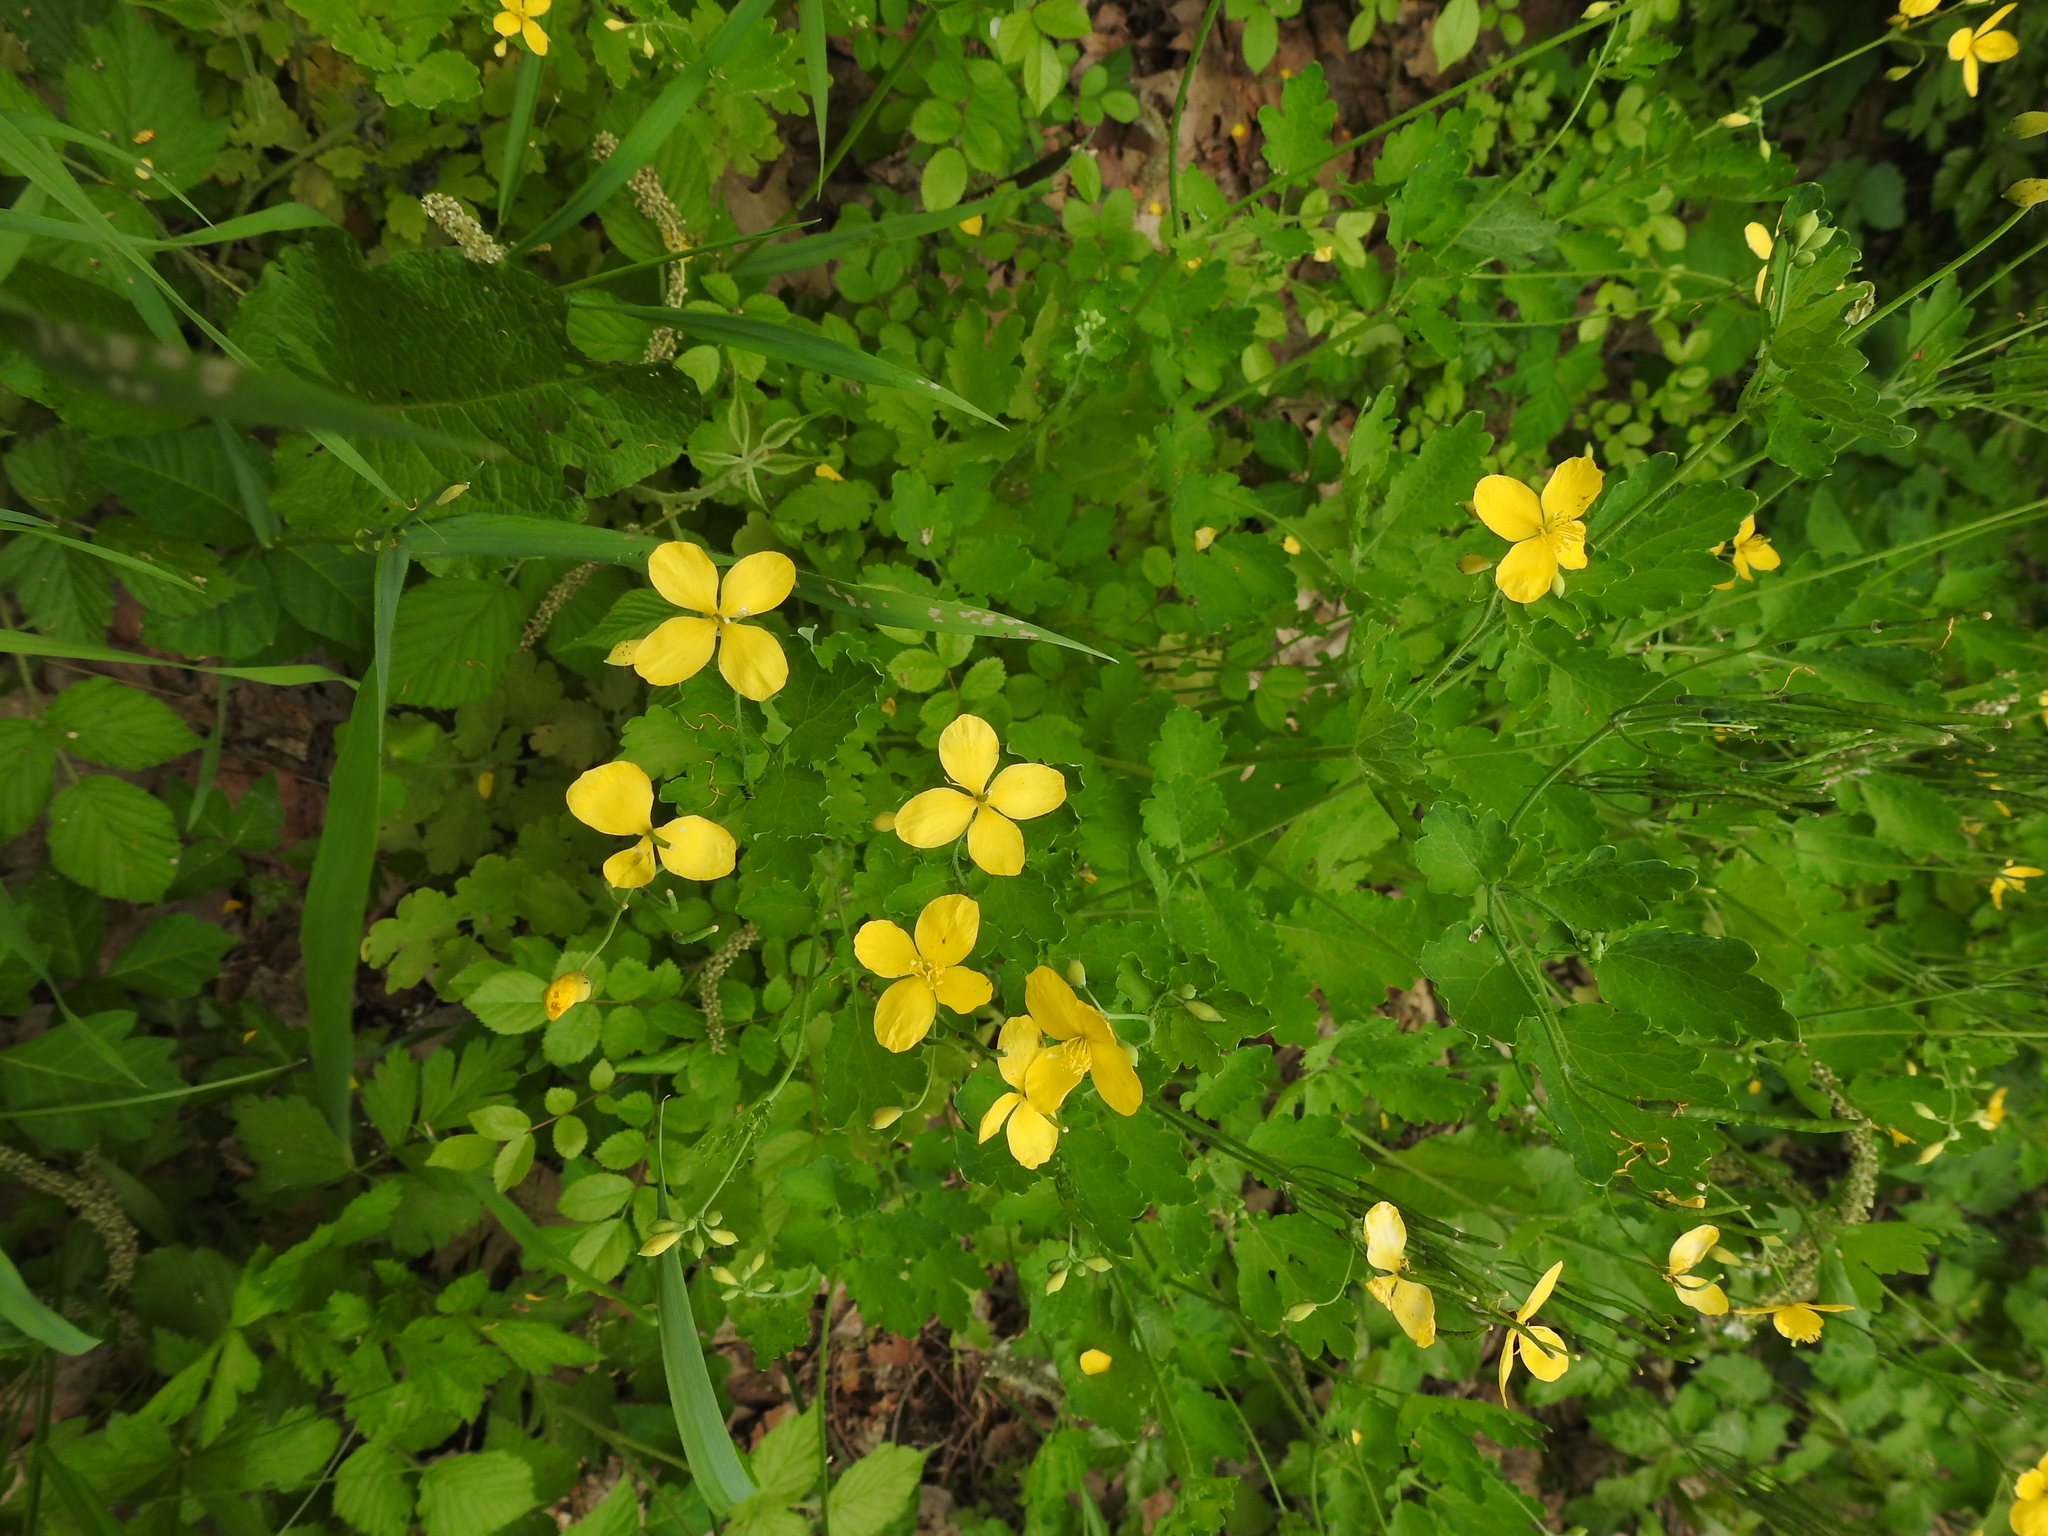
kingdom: Plantae
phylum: Tracheophyta
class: Magnoliopsida
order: Ranunculales
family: Papaveraceae
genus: Chelidonium
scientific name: Chelidonium majus
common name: Greater celandine
